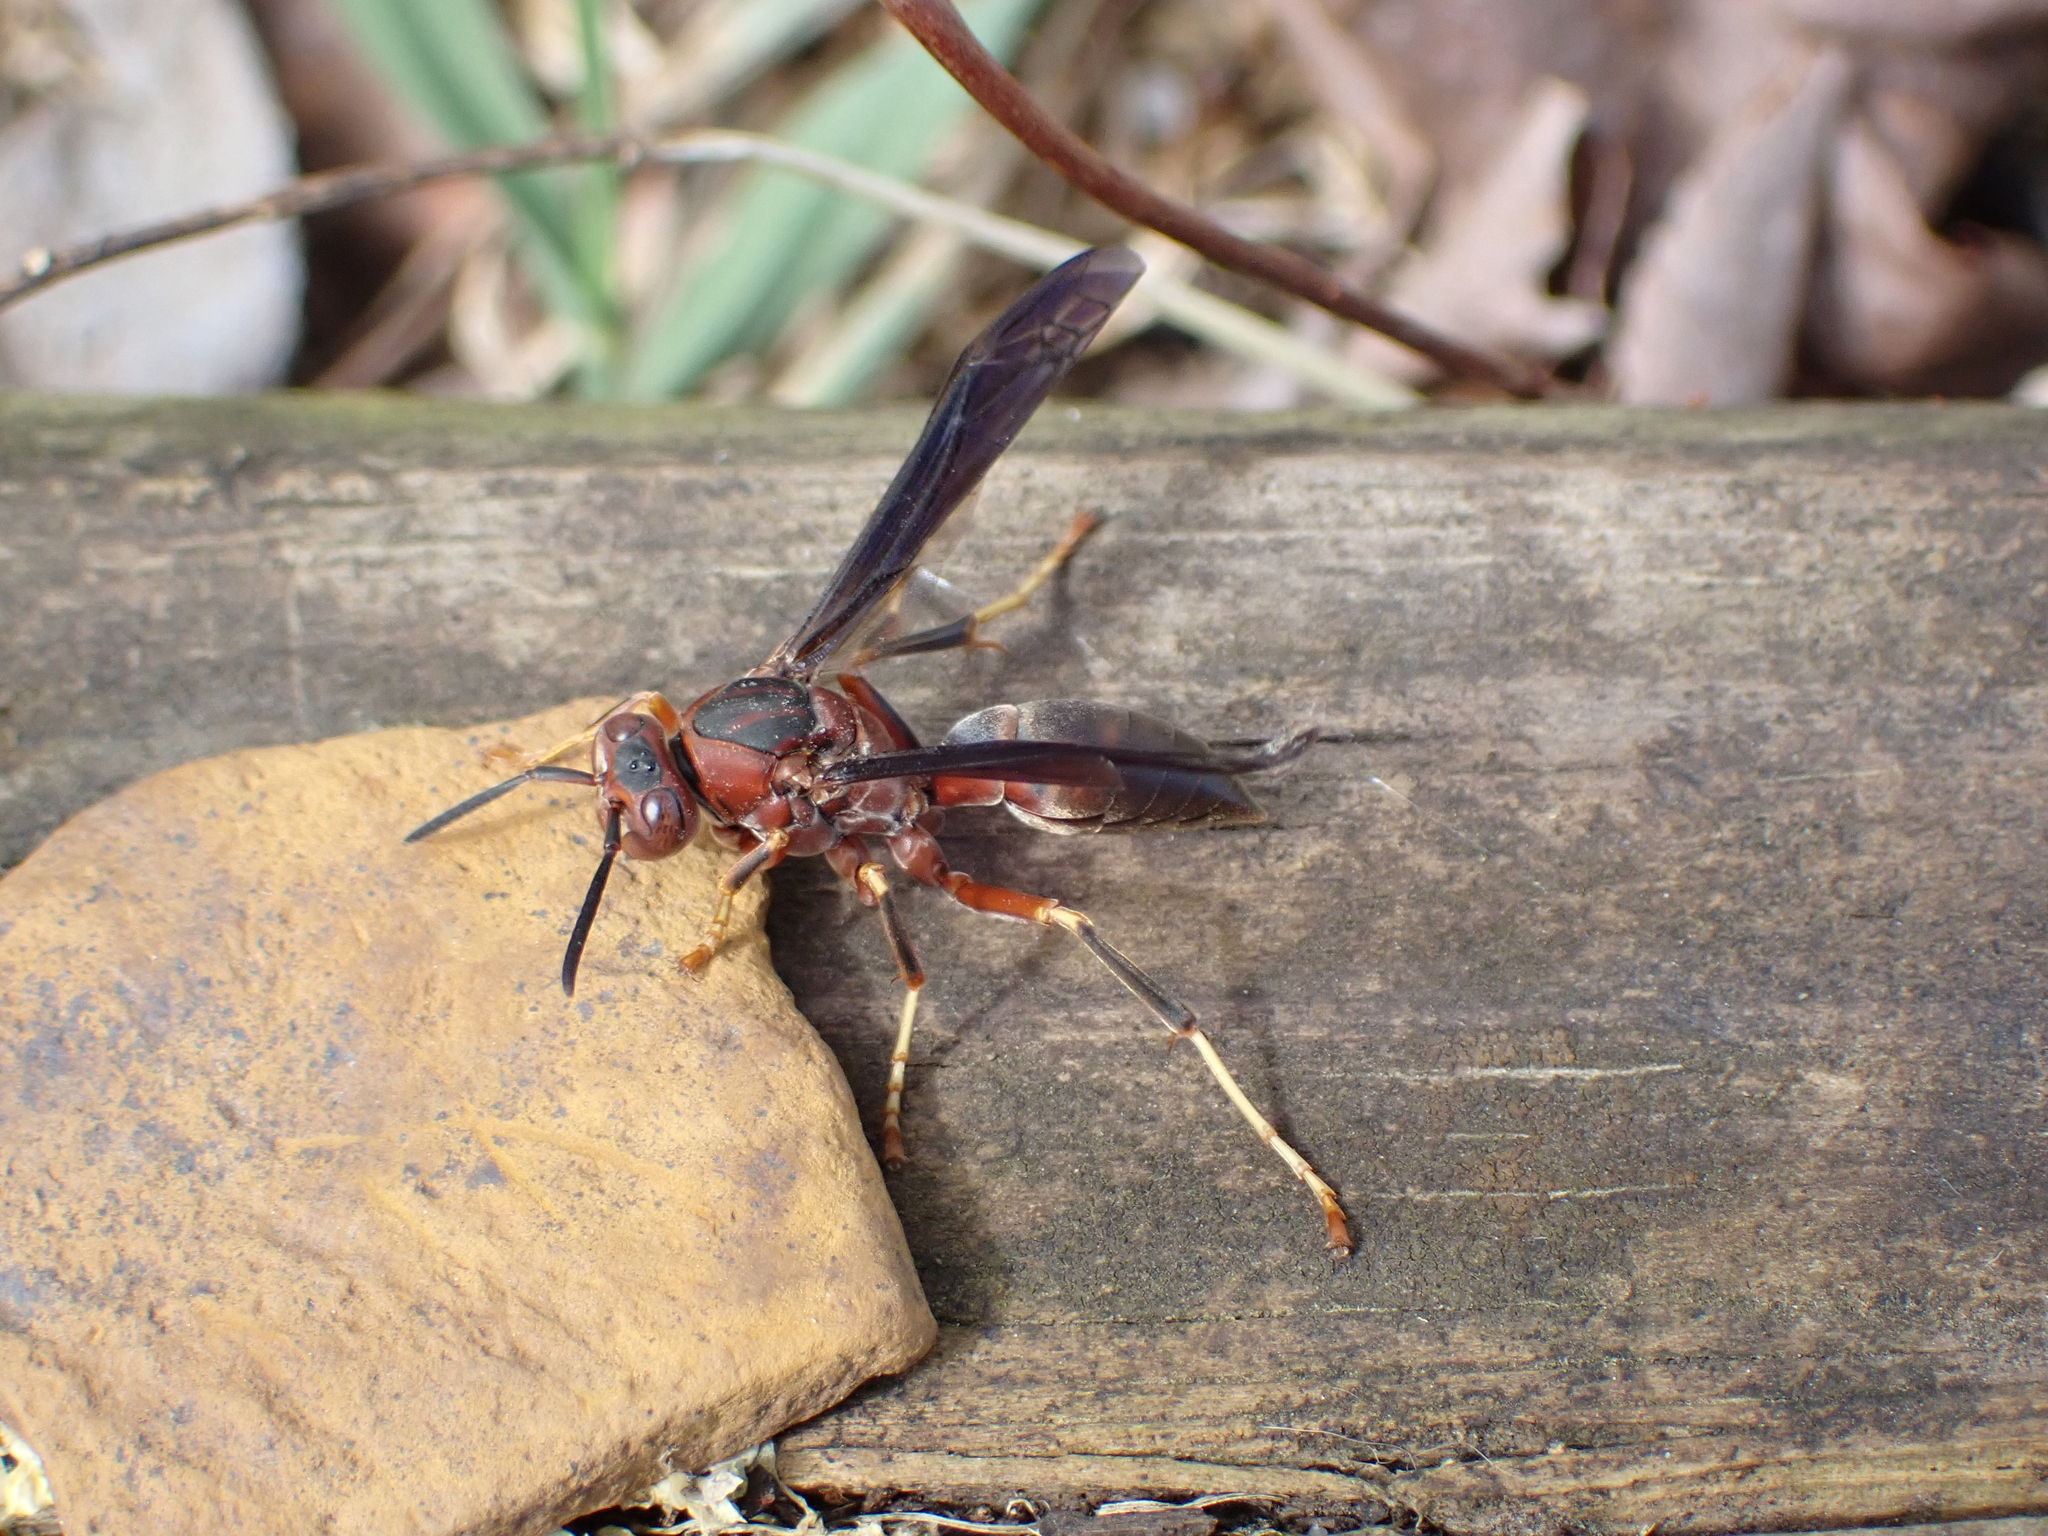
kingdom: Animalia
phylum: Arthropoda
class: Insecta
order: Hymenoptera
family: Eumenidae
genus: Polistes
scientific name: Polistes metricus
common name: Metric paper wasp
